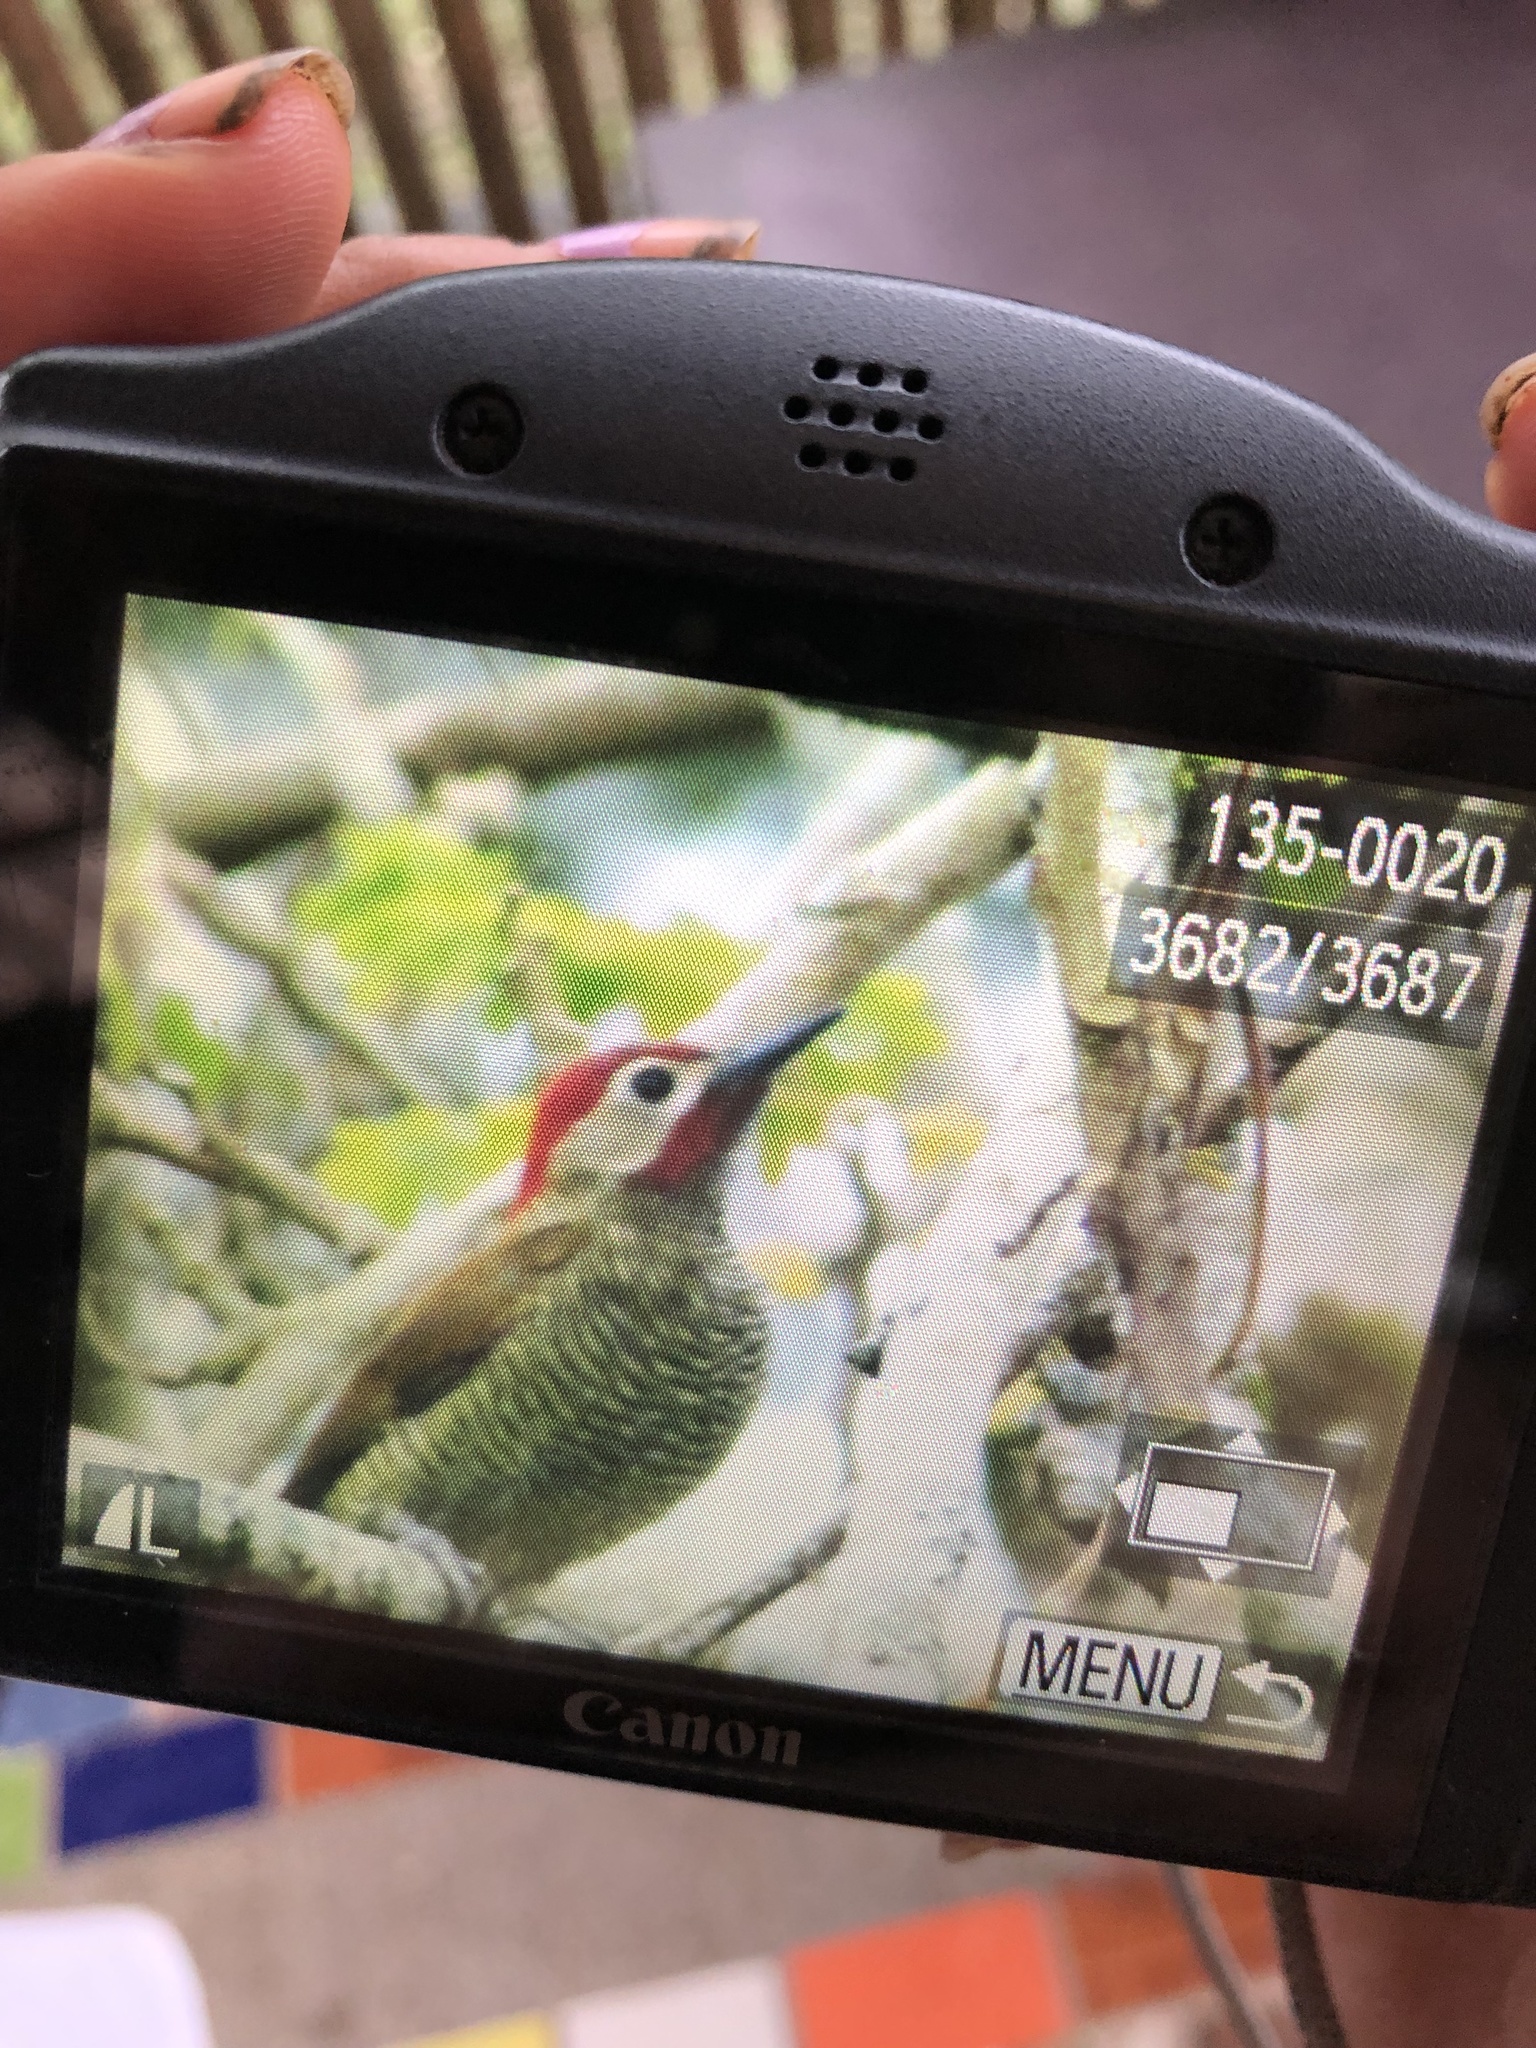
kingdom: Animalia
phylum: Chordata
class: Aves
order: Piciformes
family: Picidae
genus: Colaptes
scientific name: Colaptes rubiginosus
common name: Golden-olive woodpecker
